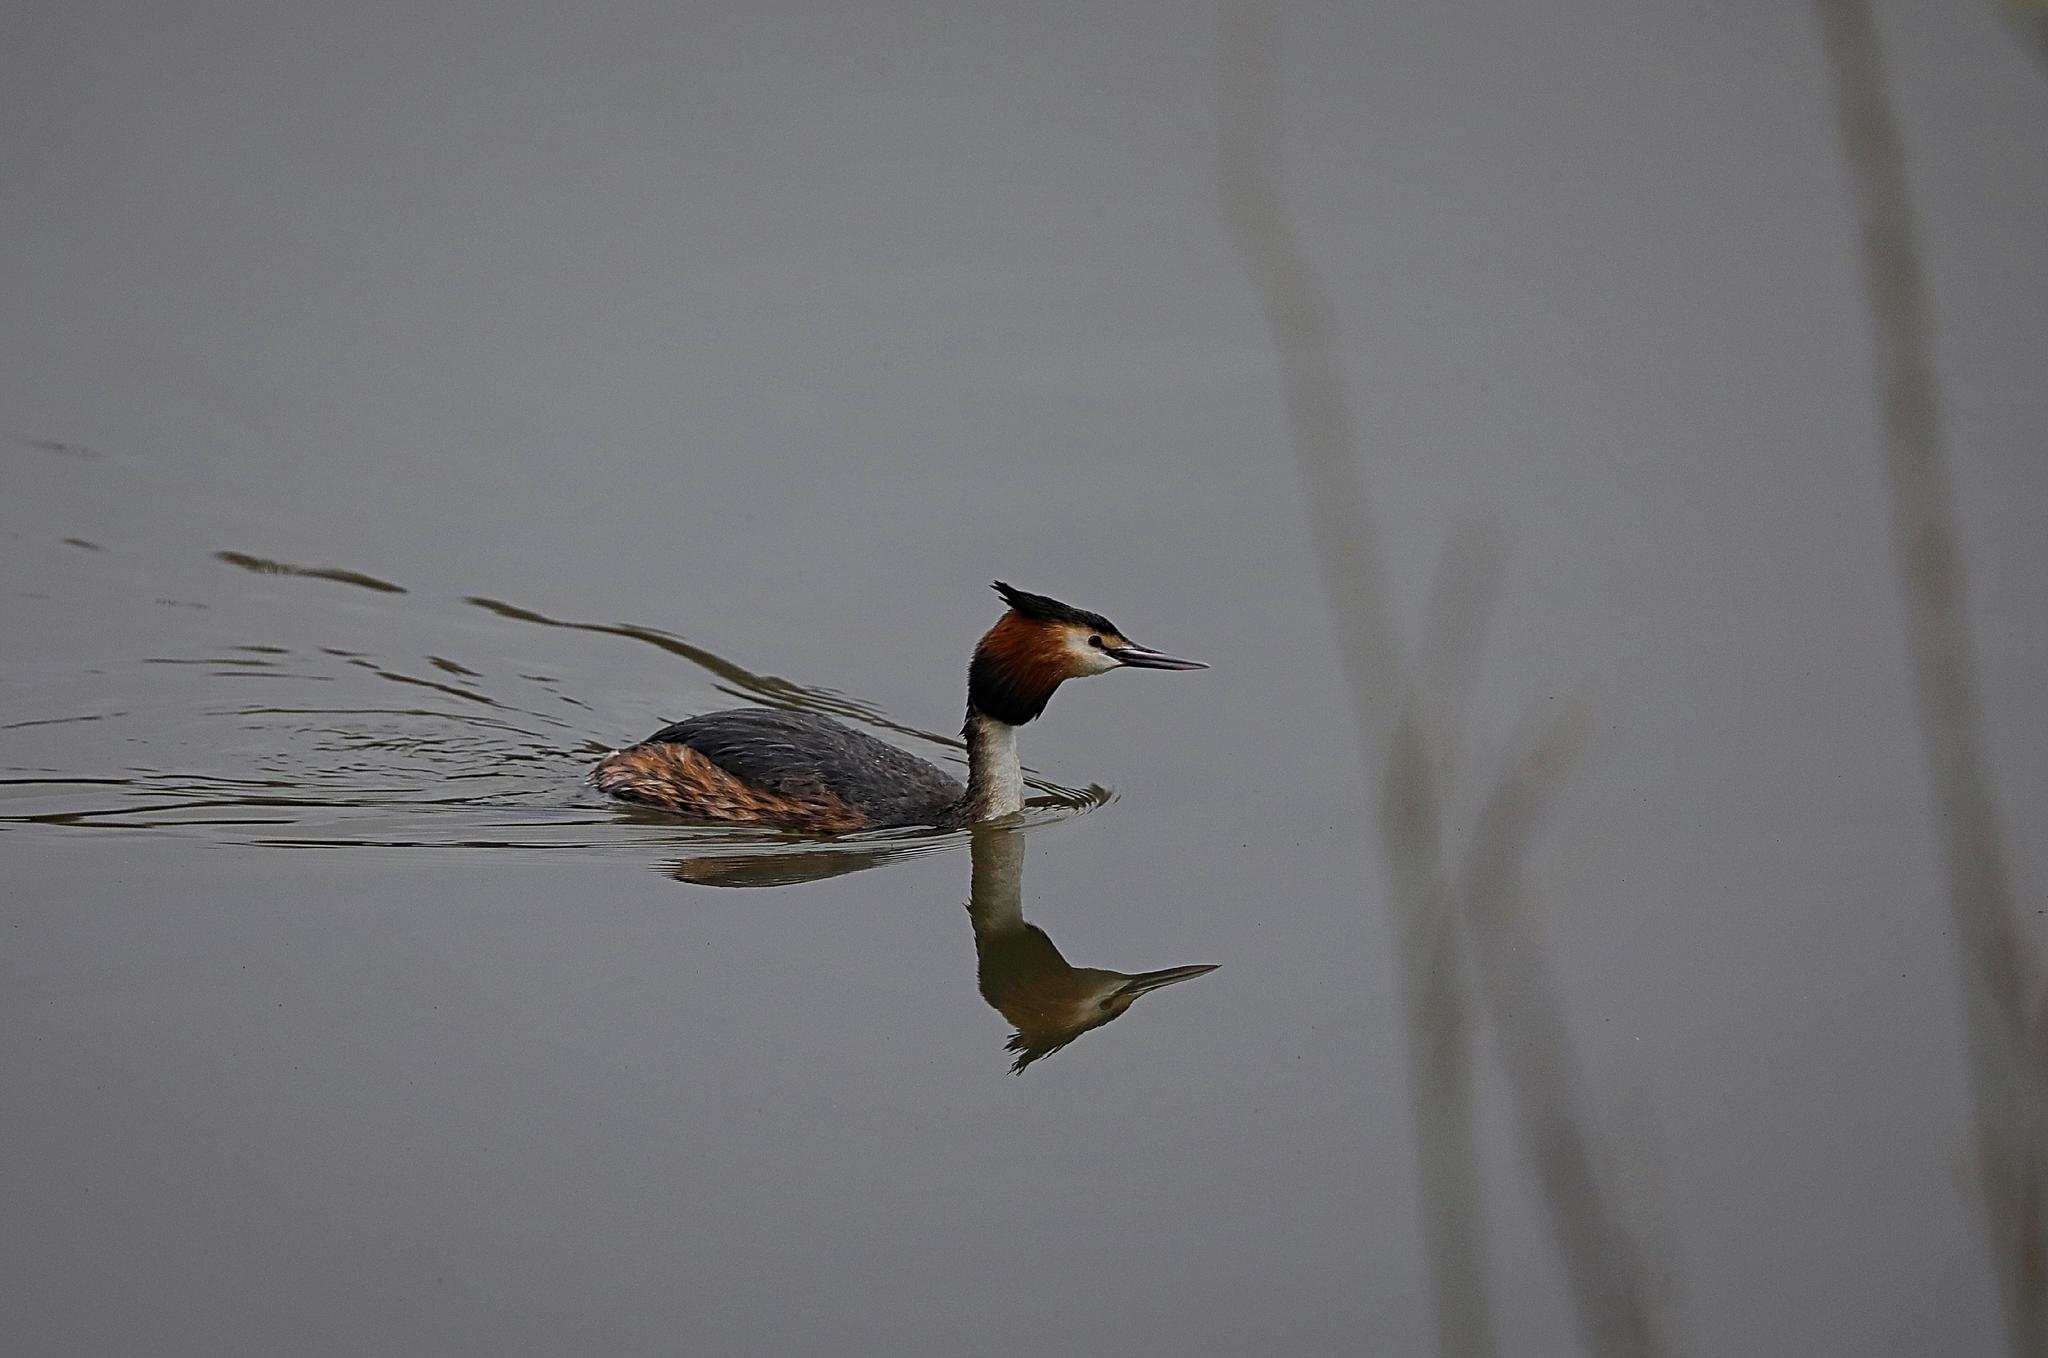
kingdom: Animalia
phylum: Chordata
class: Aves
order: Podicipediformes
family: Podicipedidae
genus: Podiceps
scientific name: Podiceps cristatus
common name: Great crested grebe
